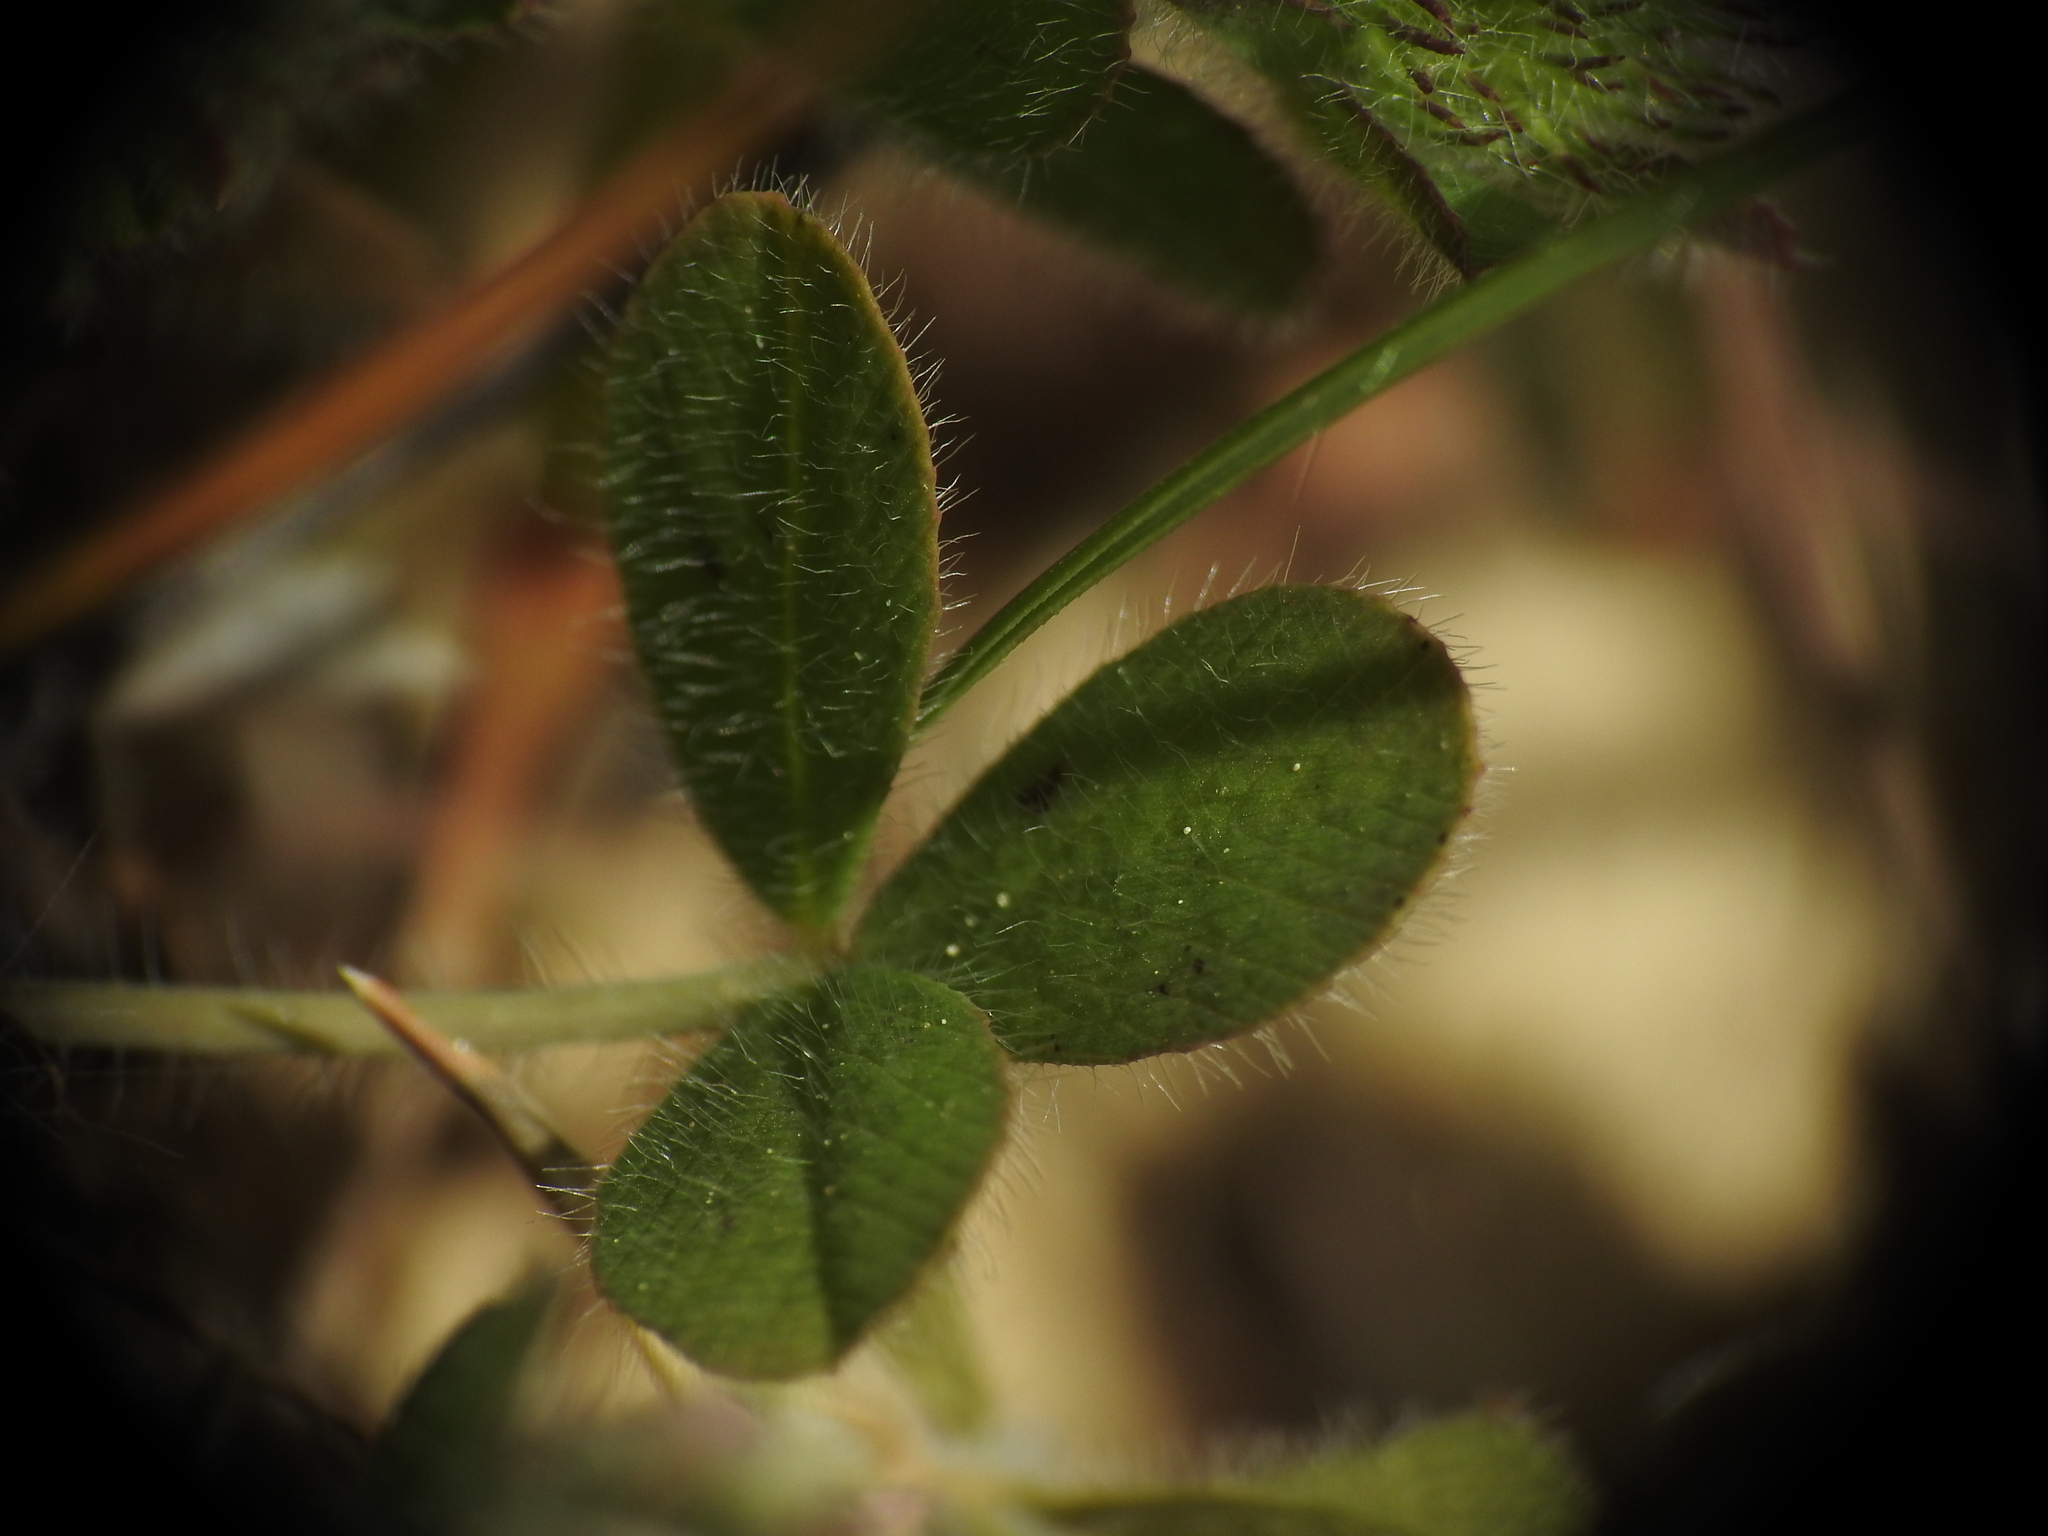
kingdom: Plantae
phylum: Tracheophyta
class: Magnoliopsida
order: Fabales
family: Fabaceae
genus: Trifolium
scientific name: Trifolium lappaceum
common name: Bur clover
